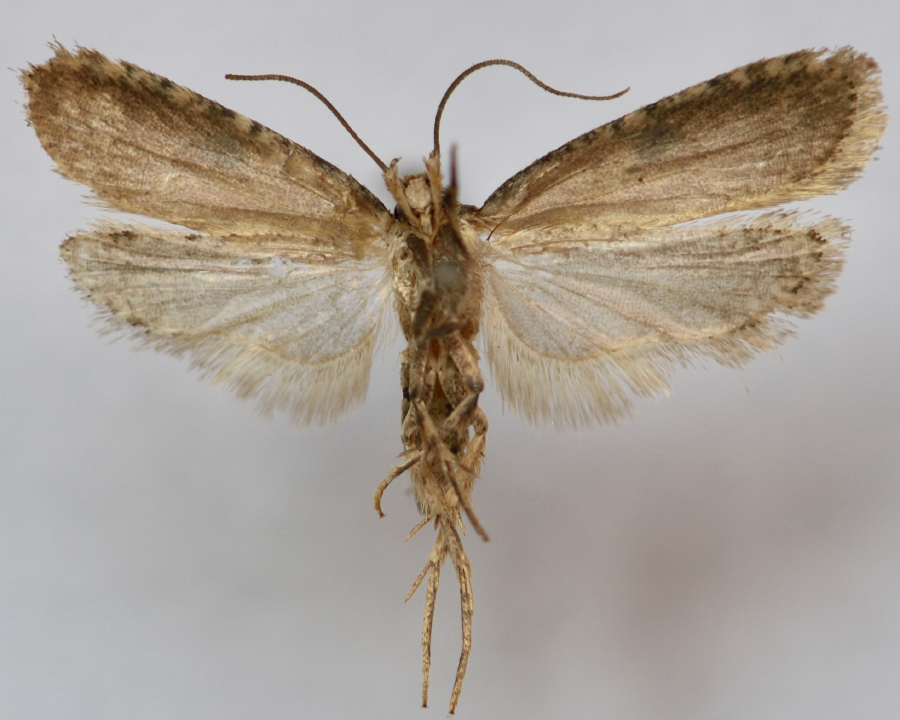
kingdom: Animalia
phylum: Arthropoda
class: Insecta
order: Lepidoptera
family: Depressariidae
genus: Agonopterix
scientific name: Agonopterix propinquella
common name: Black-spot flat-body
